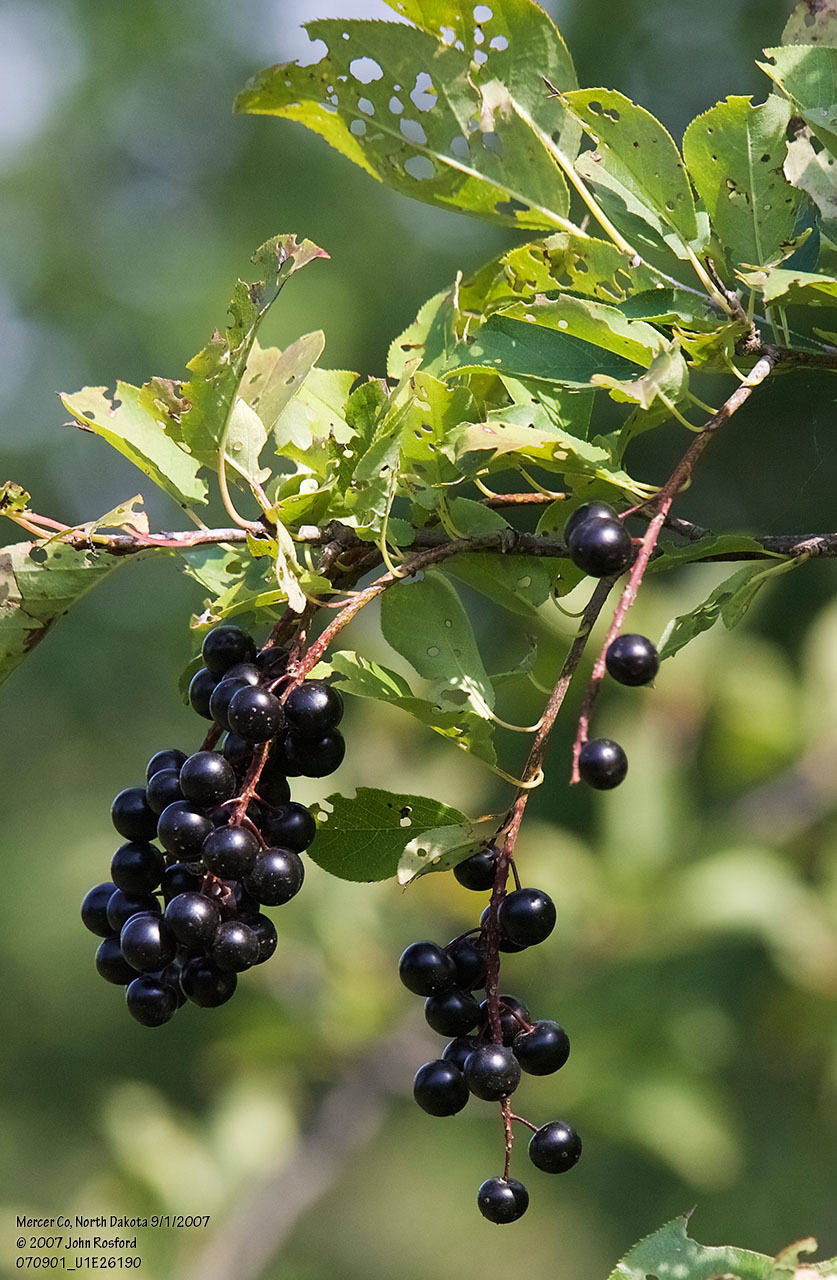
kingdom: Plantae
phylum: Tracheophyta
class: Magnoliopsida
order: Rosales
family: Rosaceae
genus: Prunus
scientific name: Prunus virginiana
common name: Chokecherry
